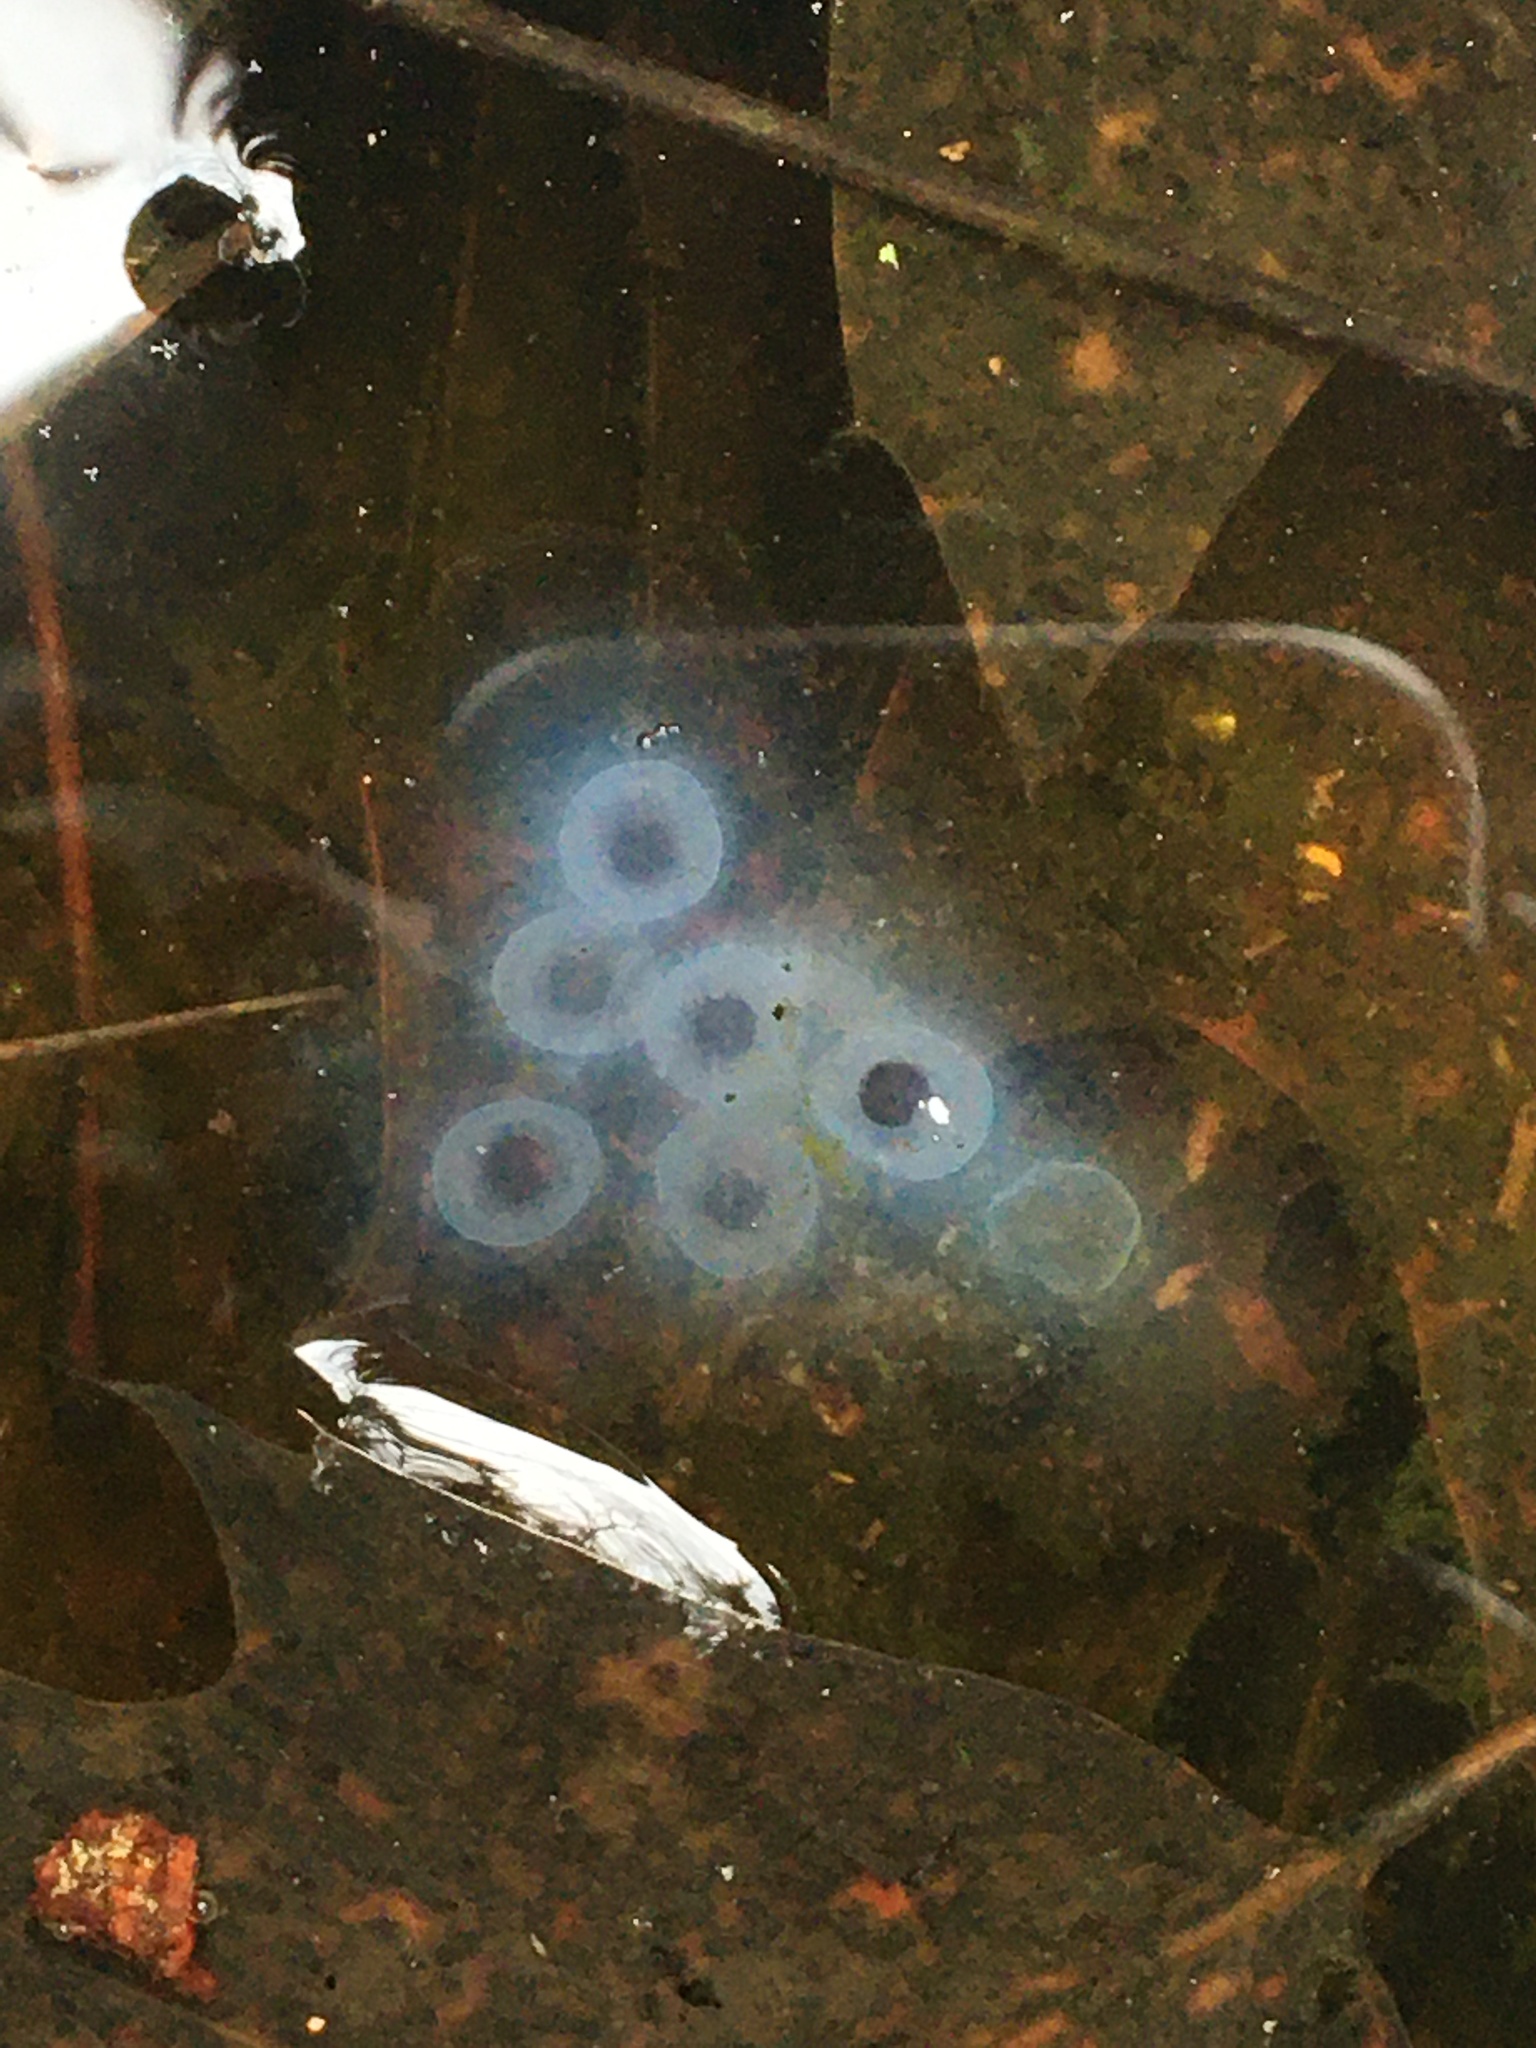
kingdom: Animalia
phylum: Chordata
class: Amphibia
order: Caudata
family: Ambystomatidae
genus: Ambystoma
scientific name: Ambystoma maculatum
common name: Spotted salamander
